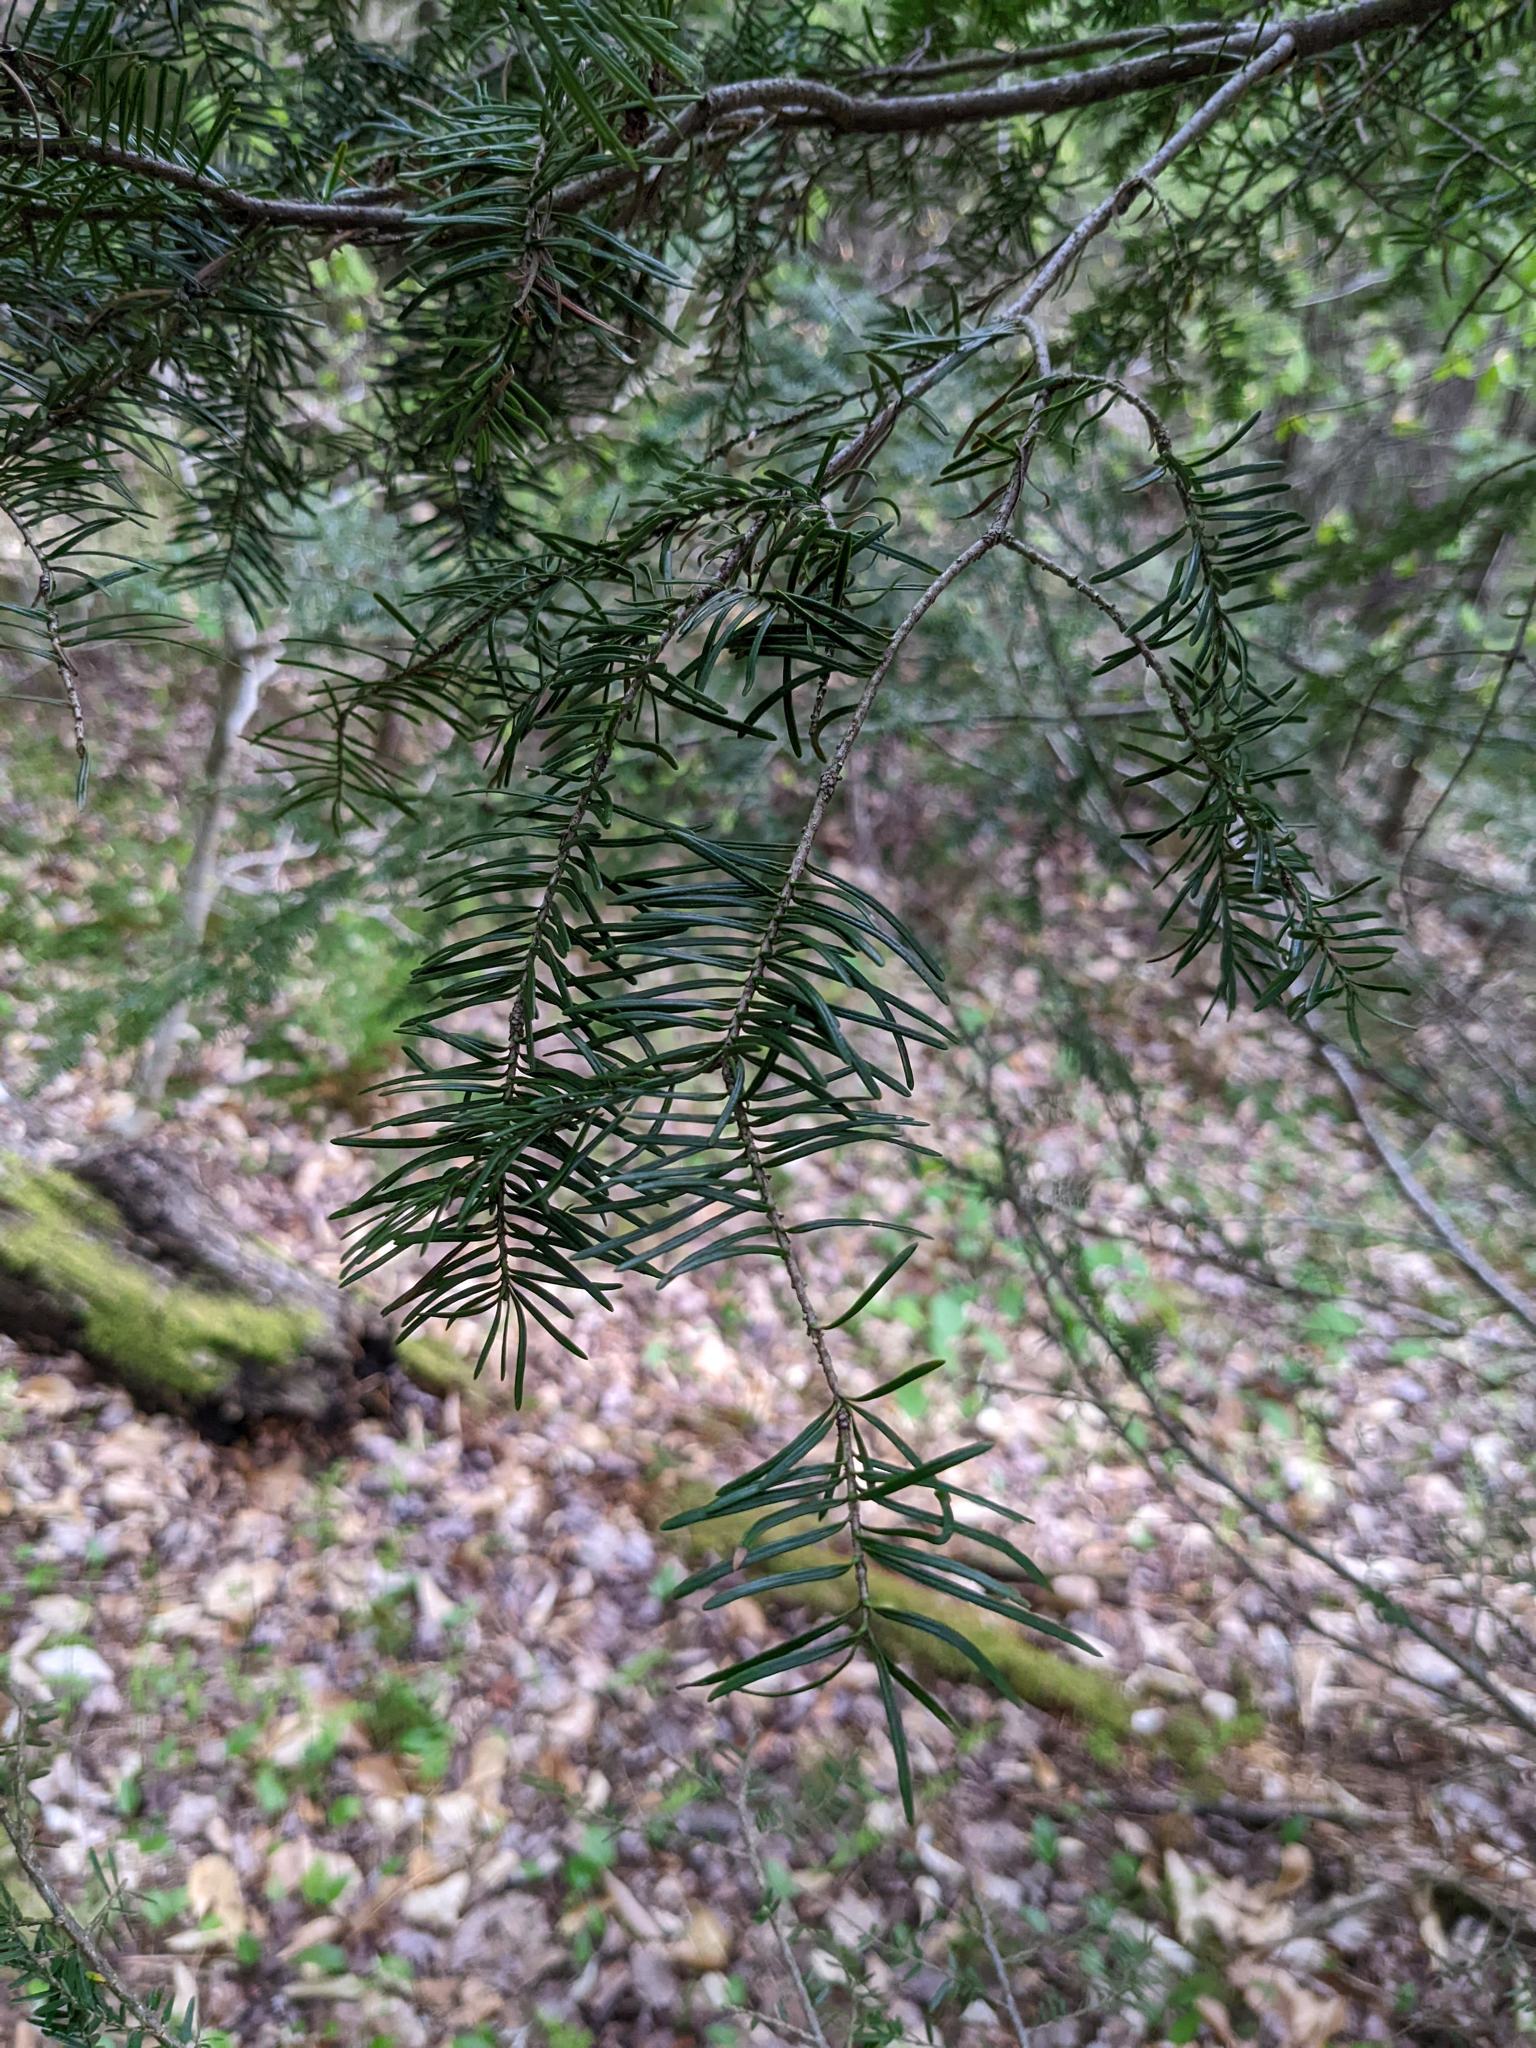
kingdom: Plantae
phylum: Tracheophyta
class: Pinopsida
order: Pinales
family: Pinaceae
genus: Abies
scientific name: Abies balsamea
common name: Balsam fir
